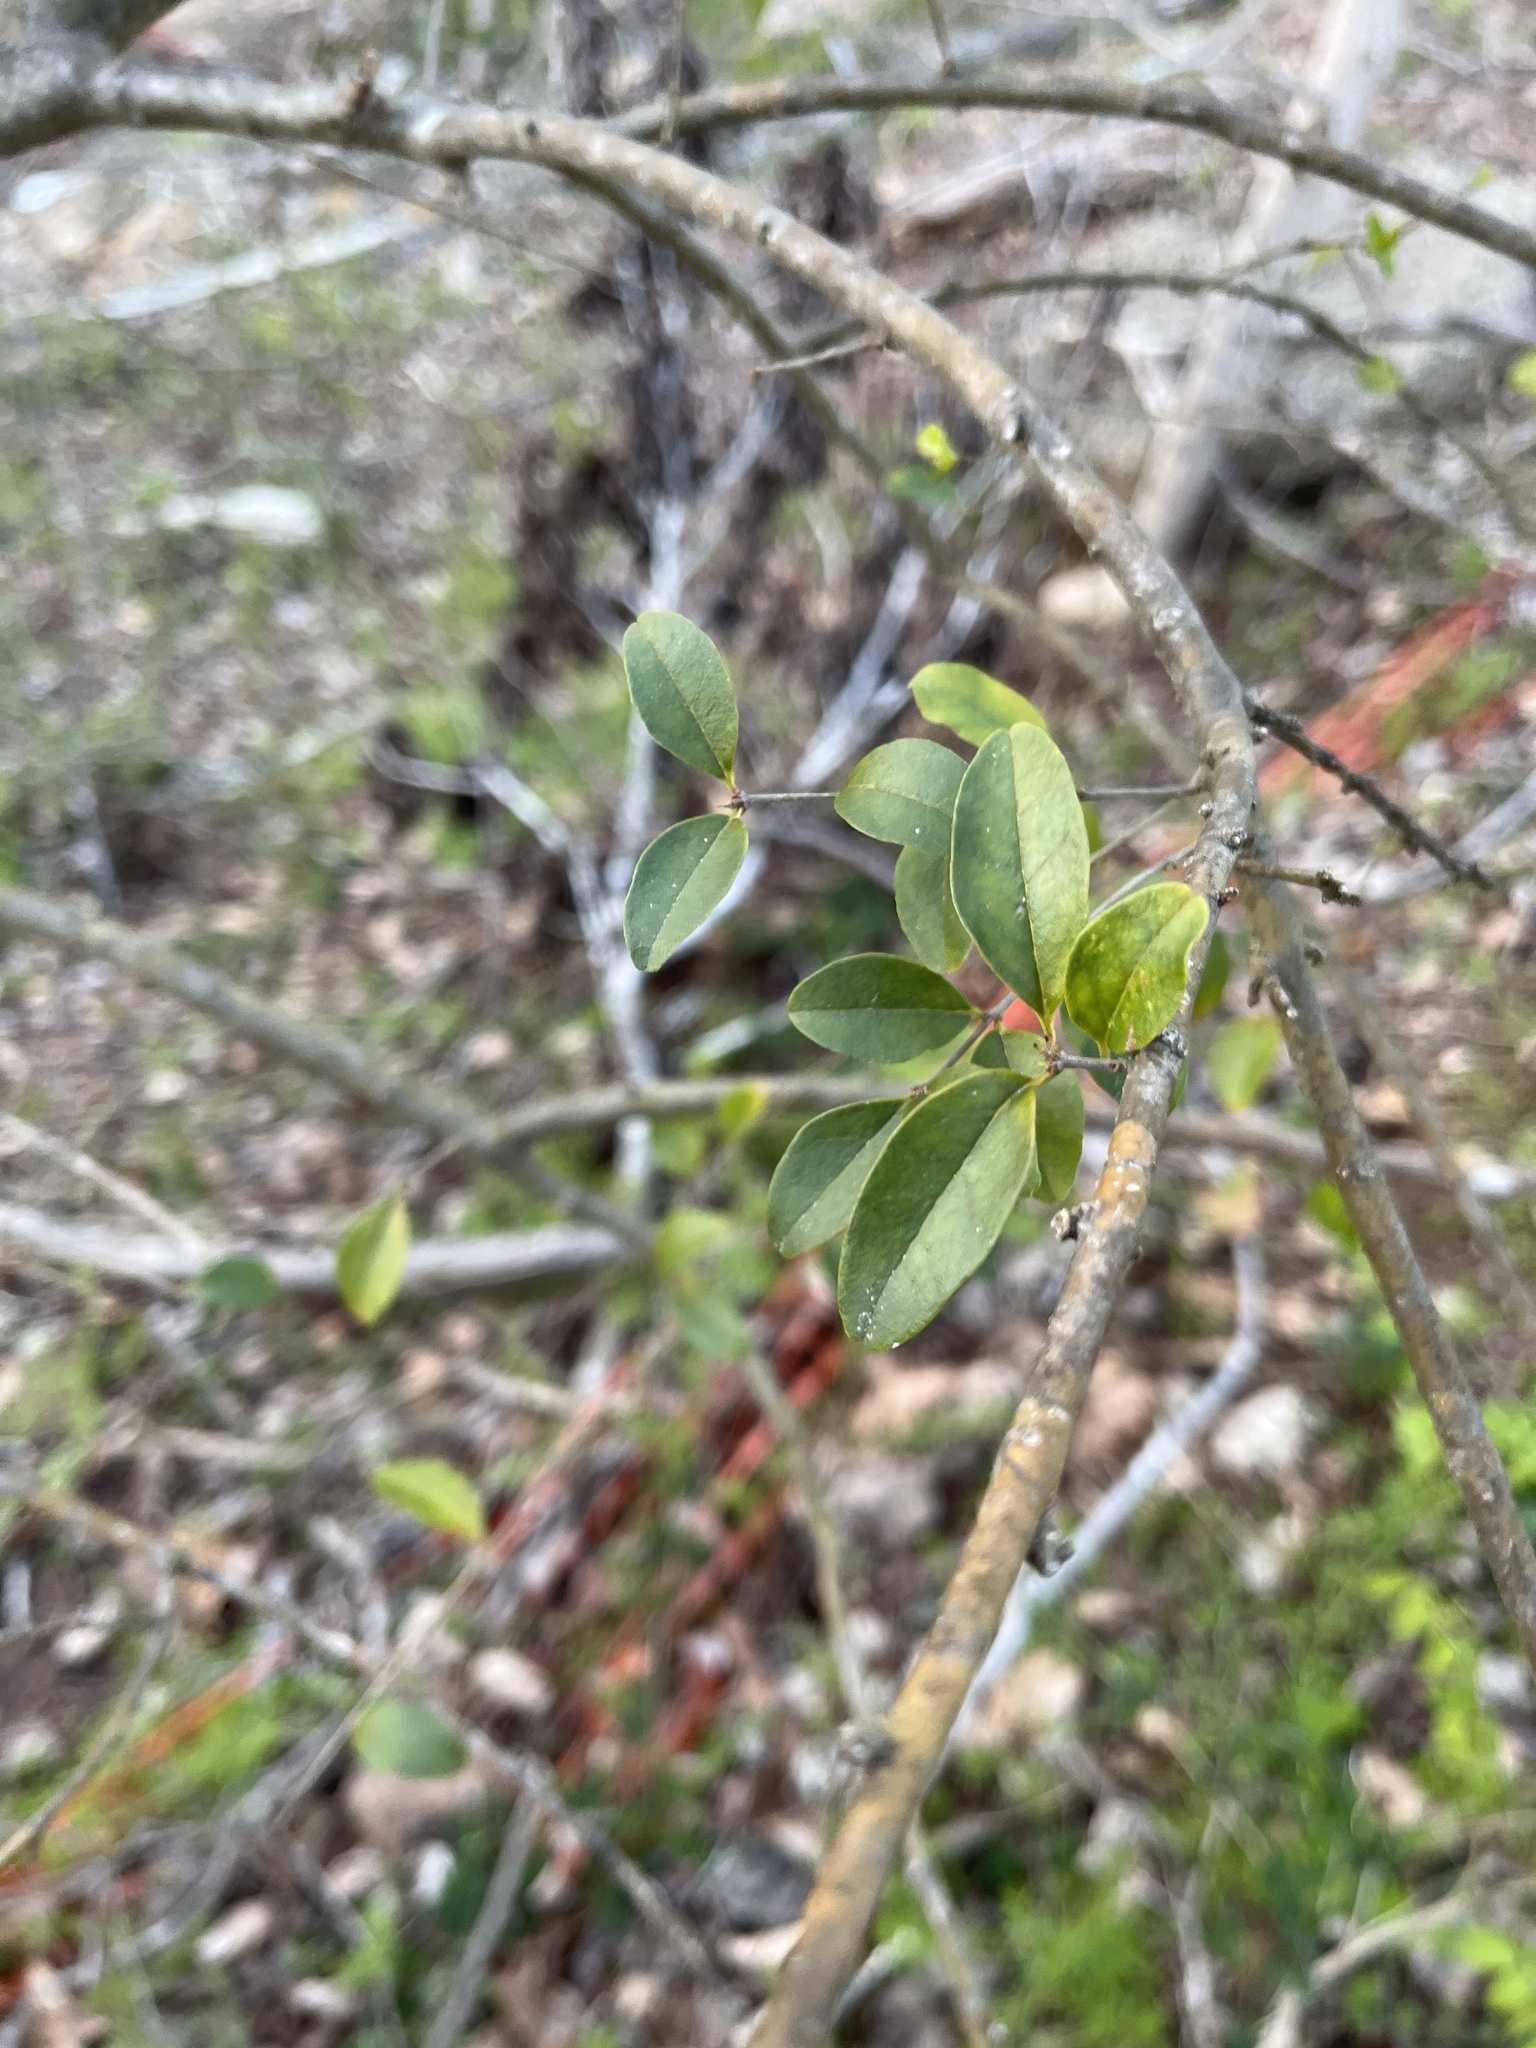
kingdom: Plantae
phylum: Tracheophyta
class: Magnoliopsida
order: Lamiales
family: Oleaceae
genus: Ligustrum
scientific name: Ligustrum sinense
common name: Chinese privet
